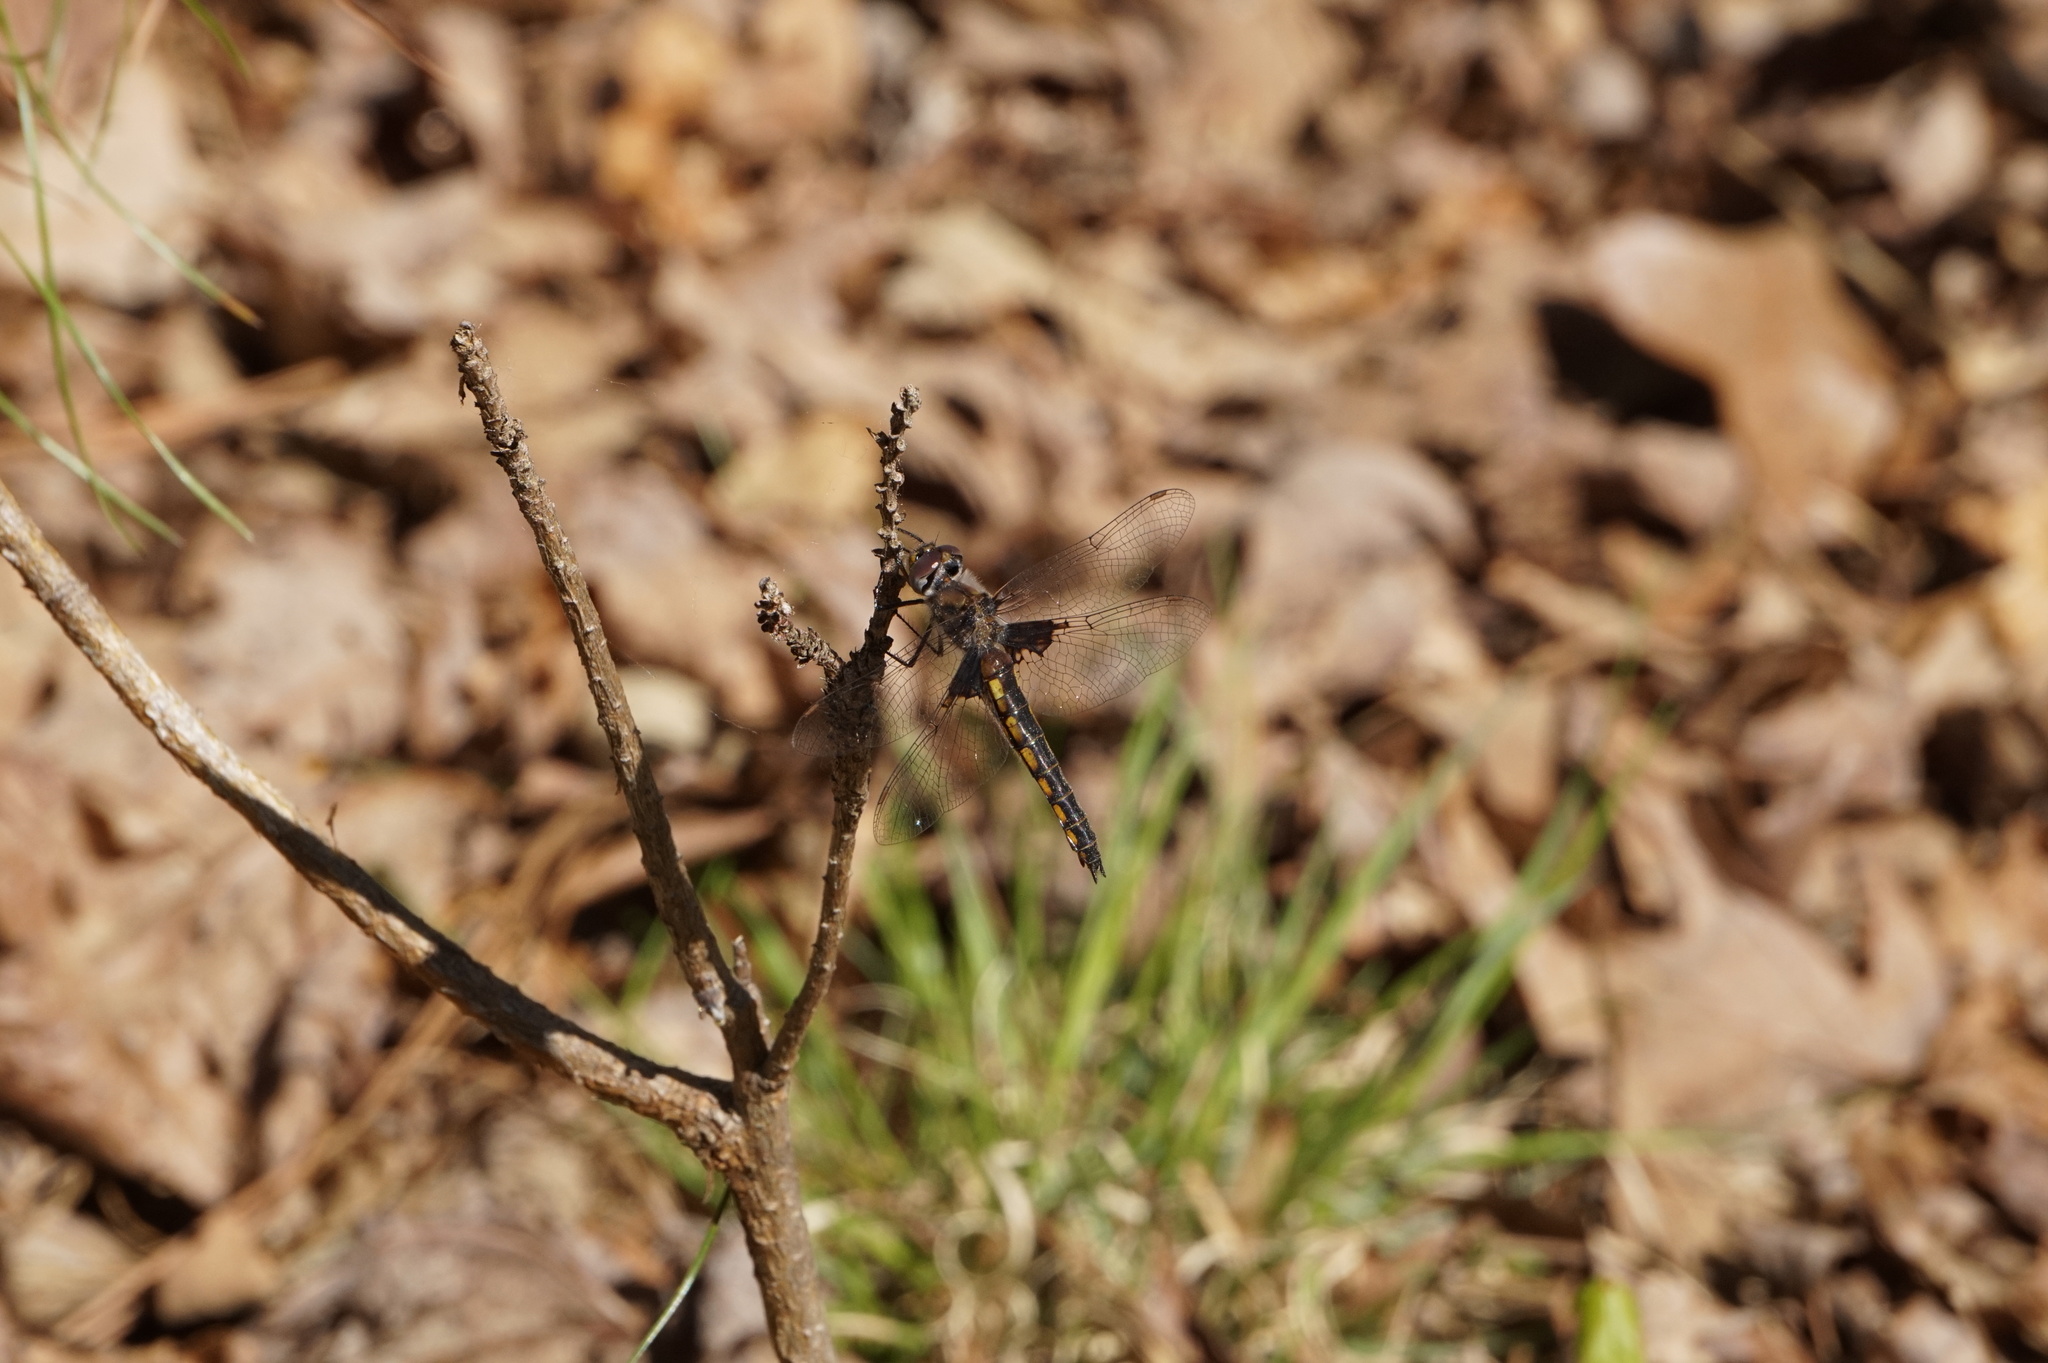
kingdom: Animalia
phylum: Arthropoda
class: Insecta
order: Odonata
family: Corduliidae
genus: Epitheca
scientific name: Epitheca cynosura
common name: Common baskettail
